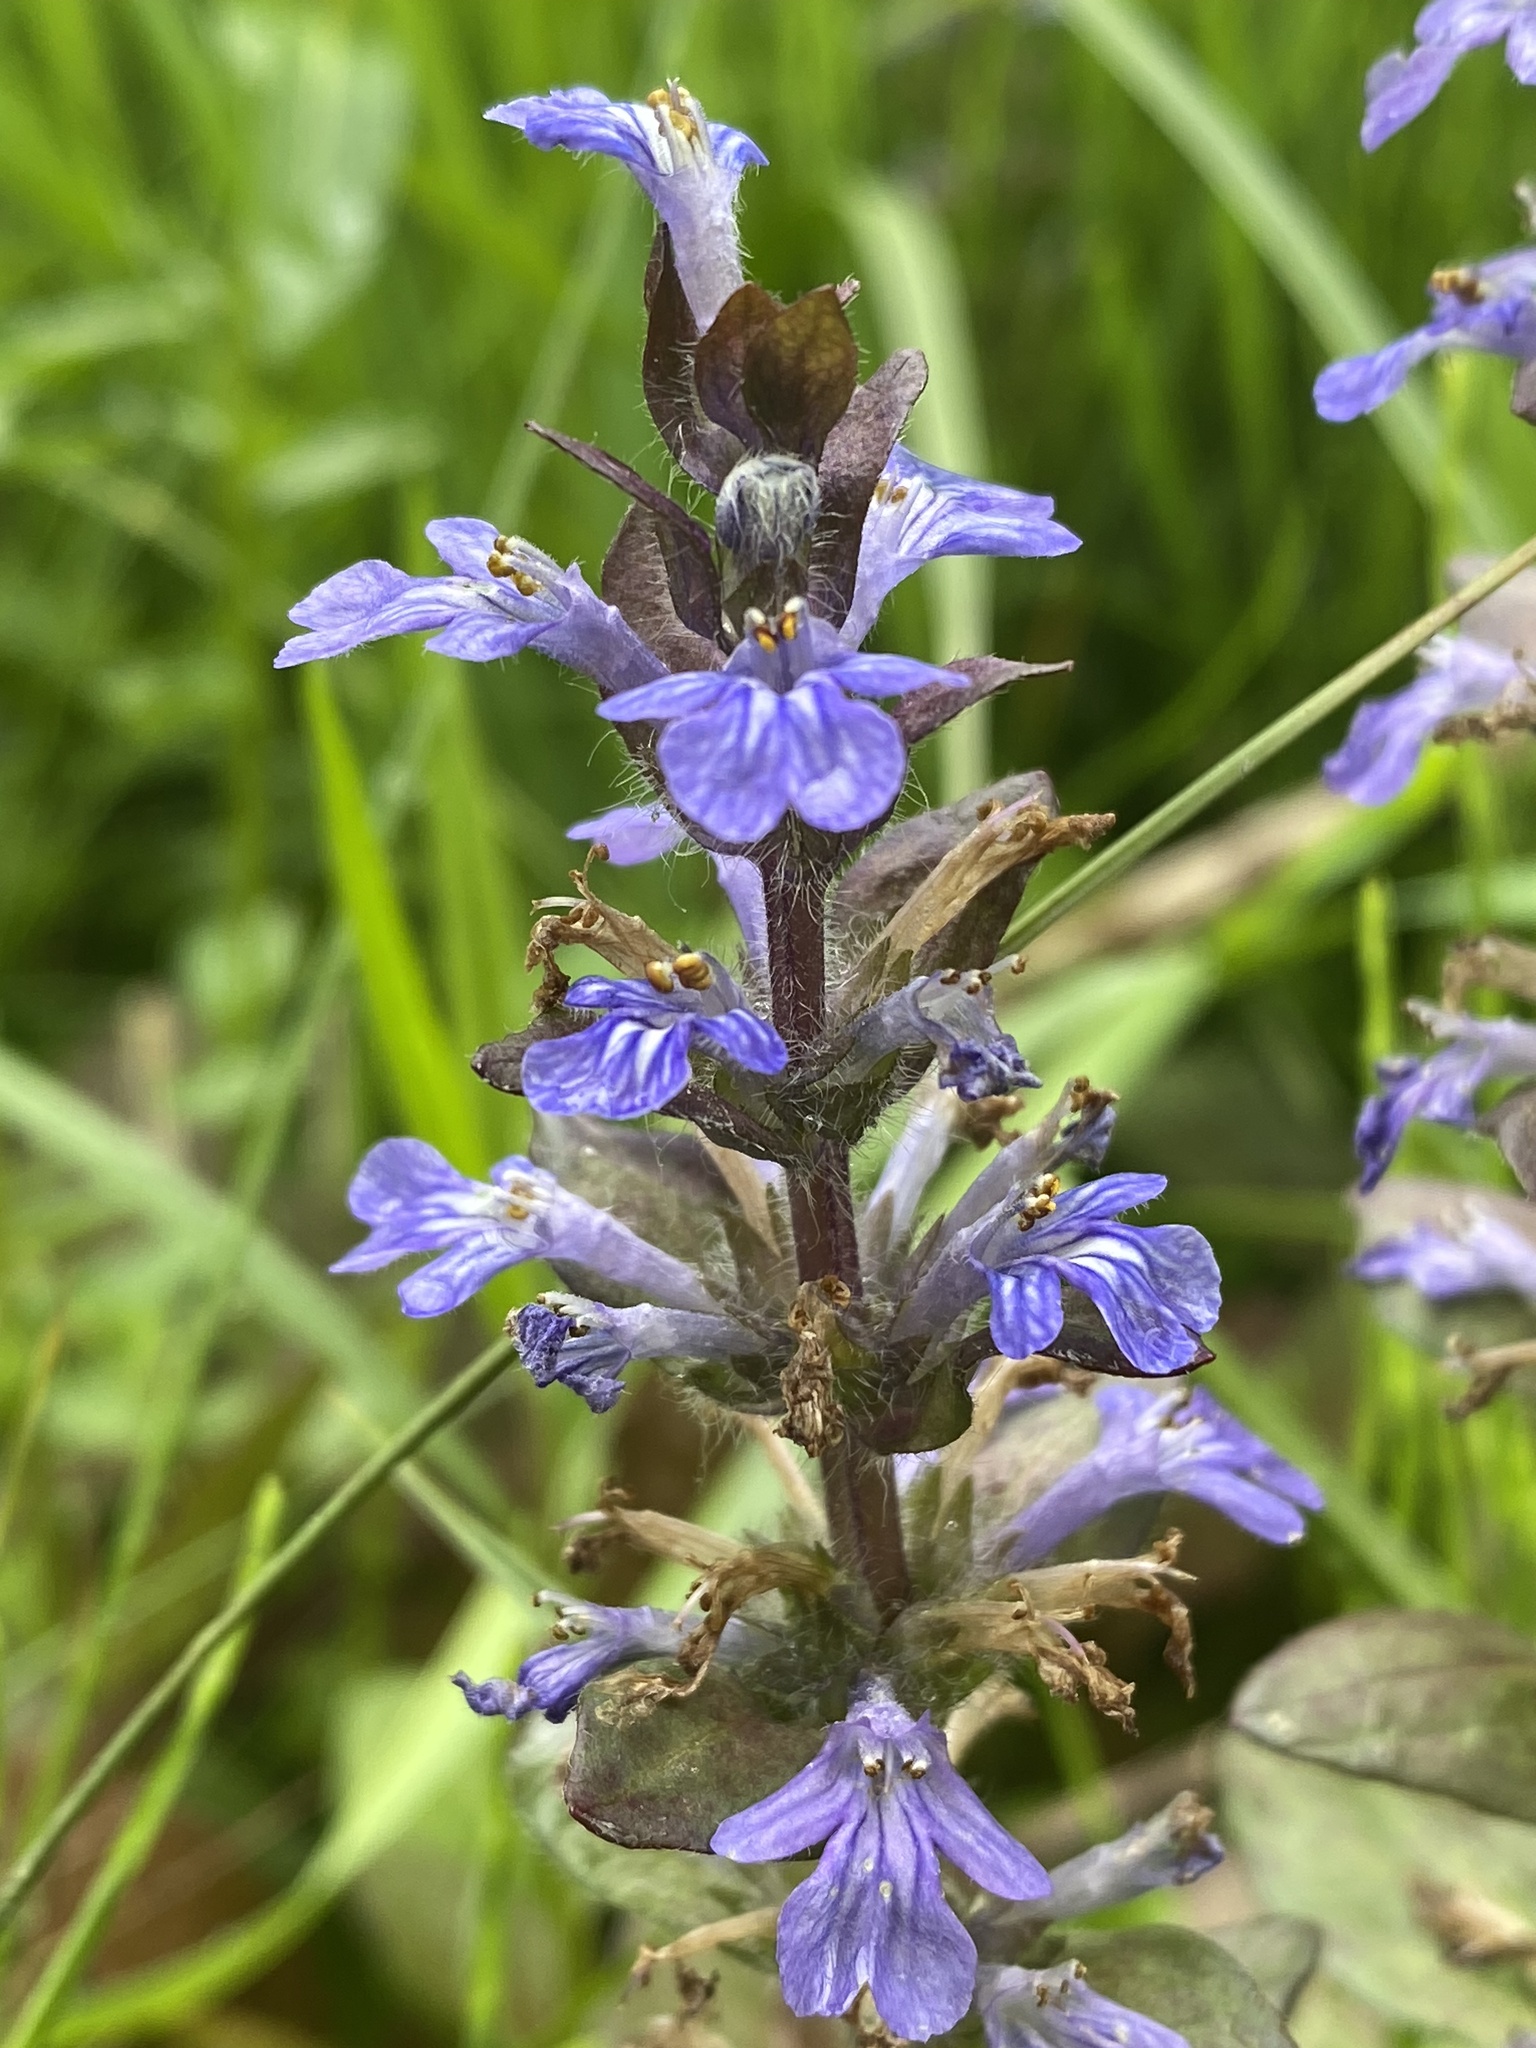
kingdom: Plantae
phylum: Tracheophyta
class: Magnoliopsida
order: Lamiales
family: Lamiaceae
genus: Ajuga
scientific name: Ajuga reptans
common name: Bugle
